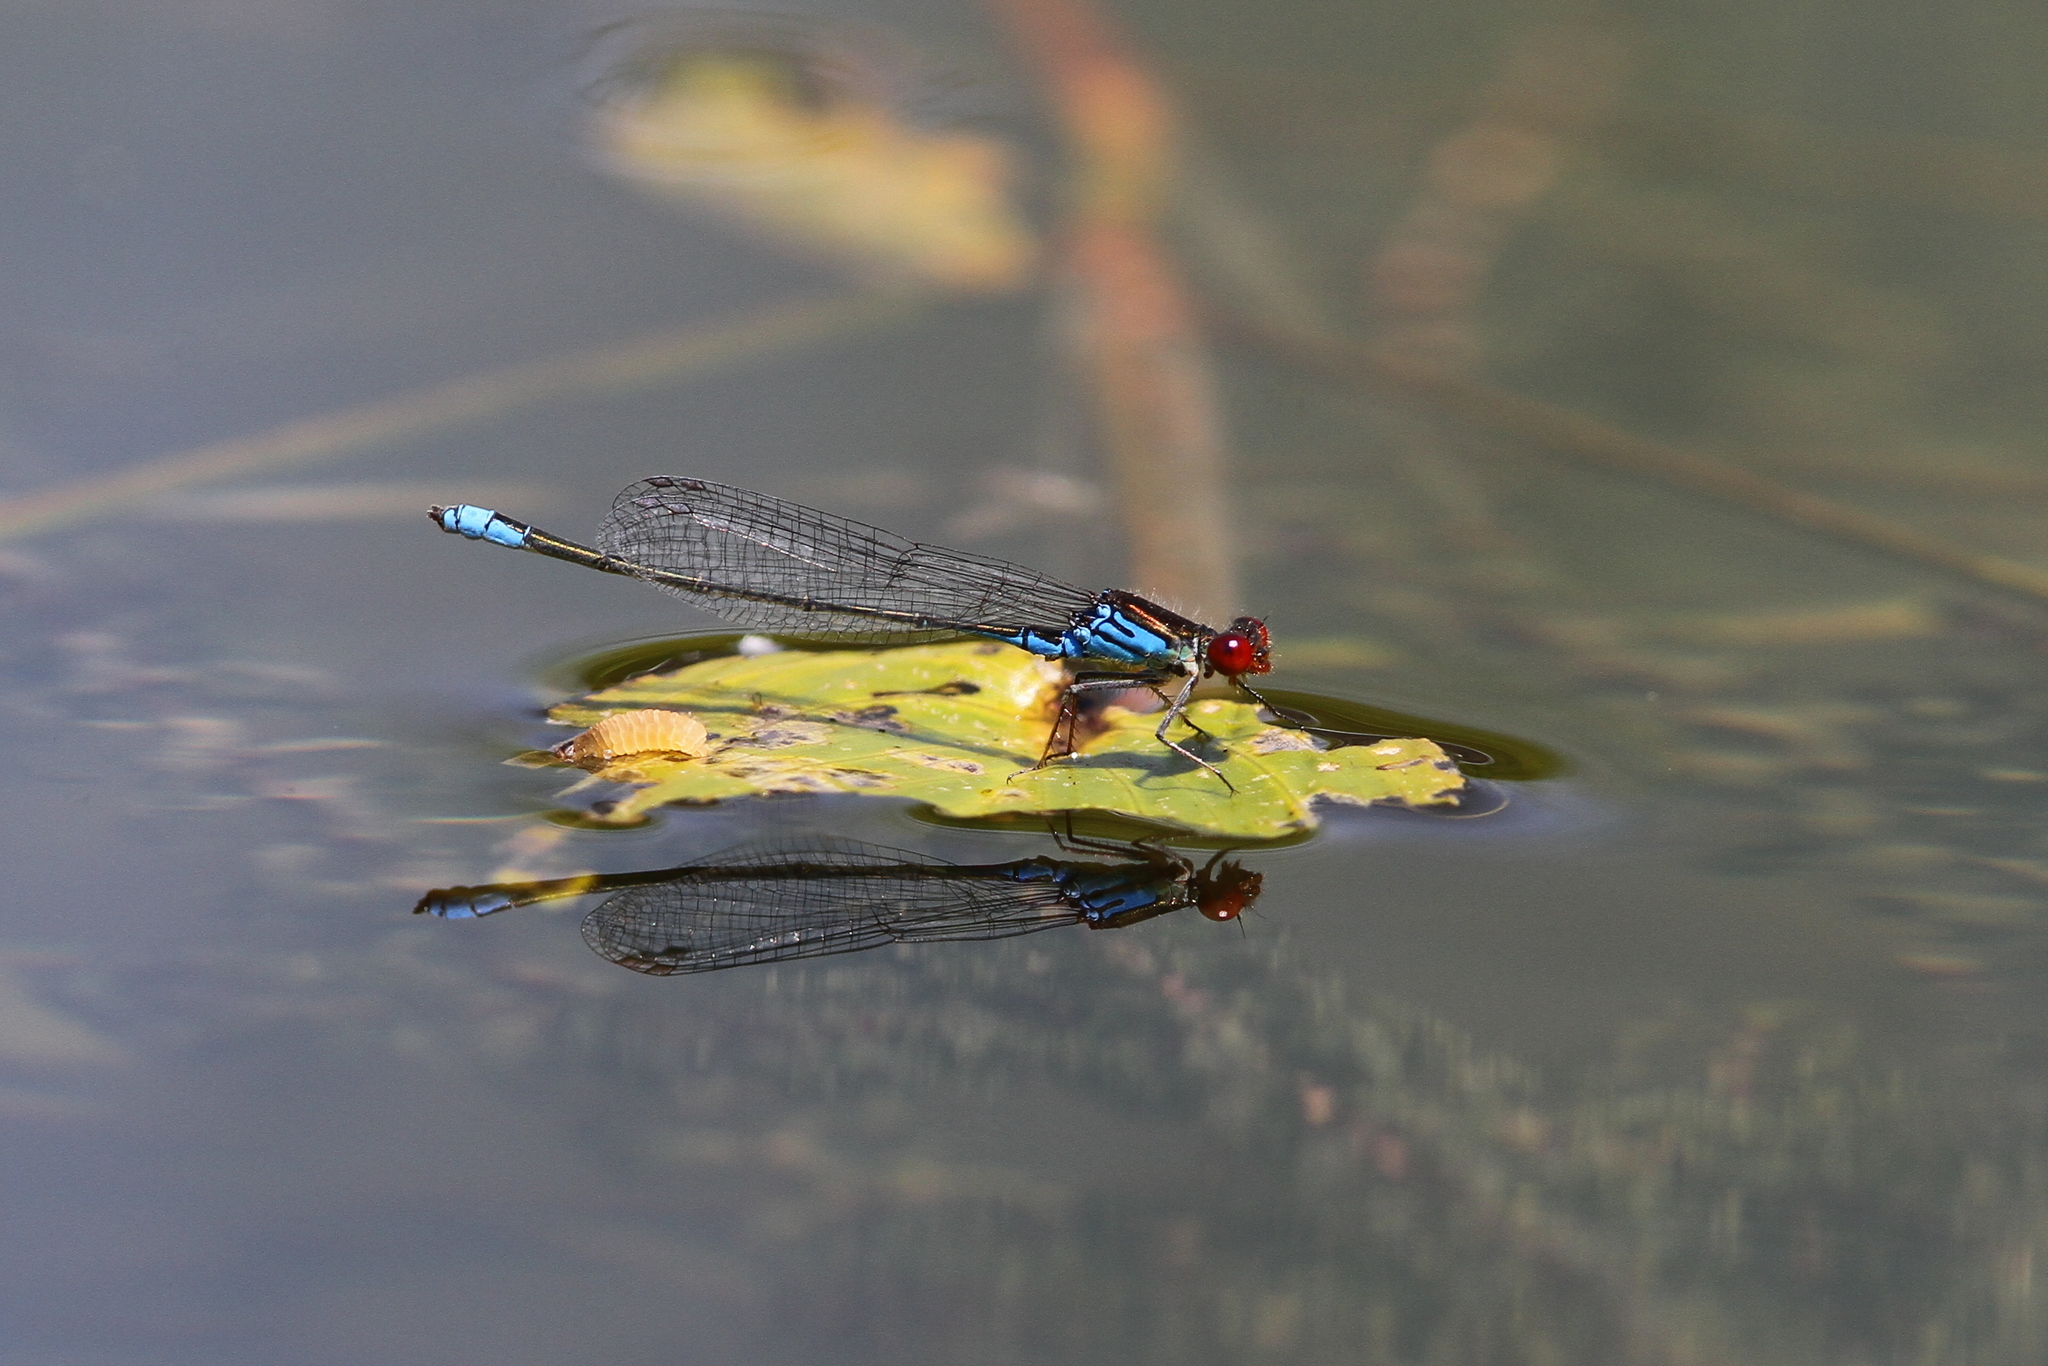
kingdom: Animalia
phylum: Arthropoda
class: Insecta
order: Odonata
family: Coenagrionidae
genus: Erythromma
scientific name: Erythromma viridulum
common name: Small red-eyed damselfly
